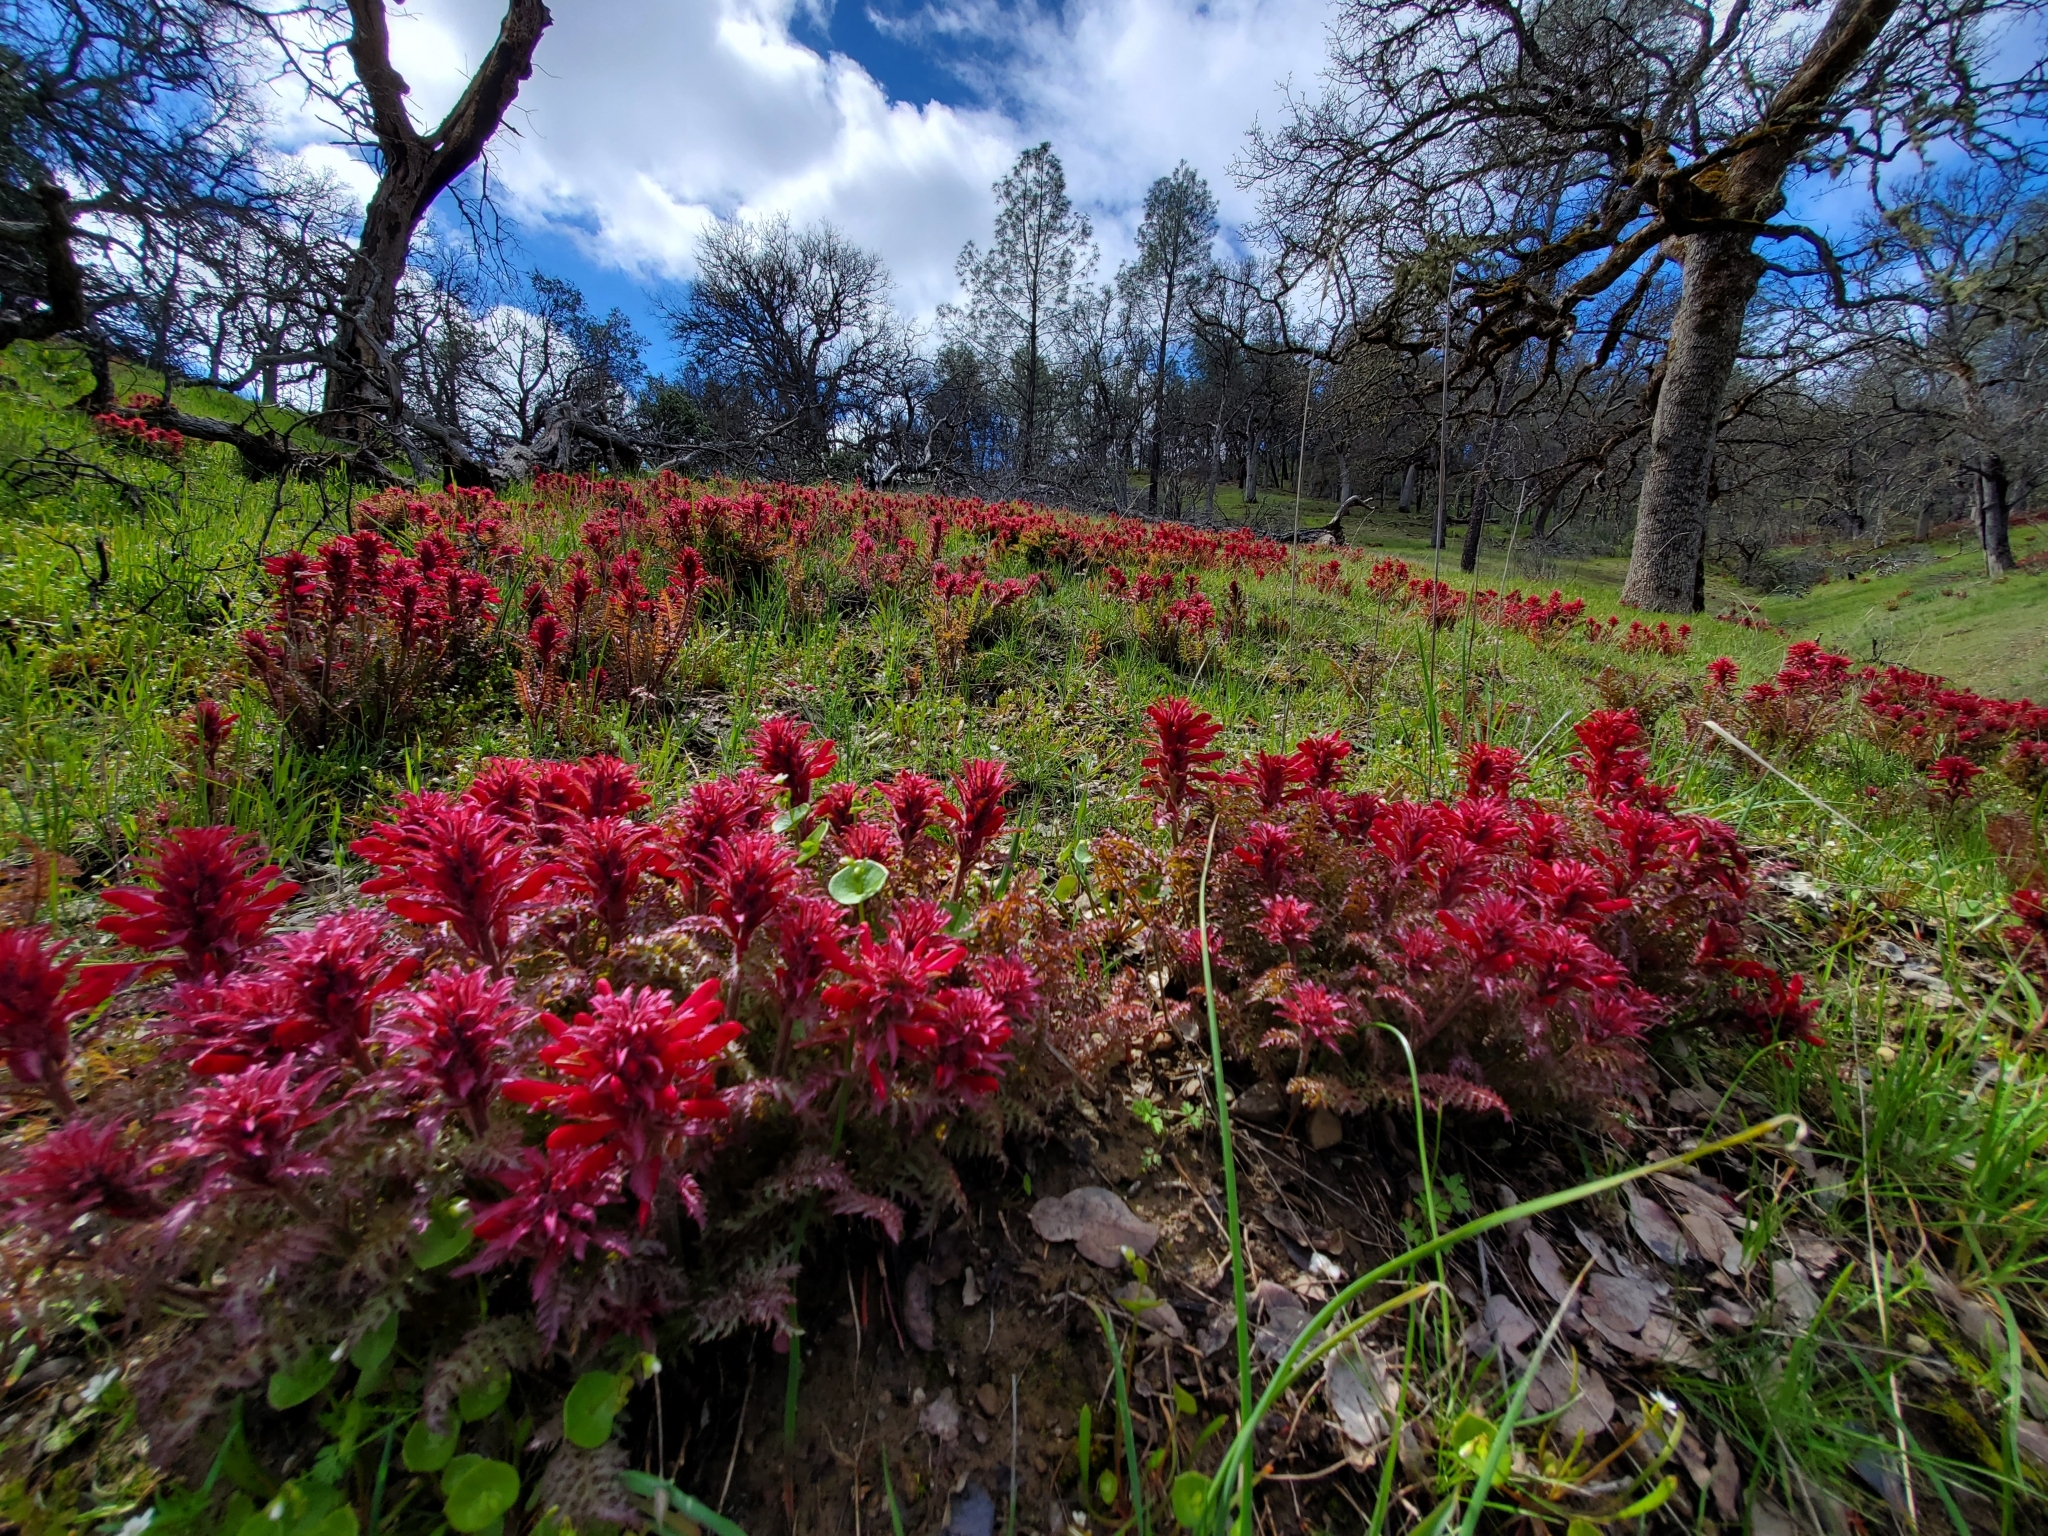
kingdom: Plantae
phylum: Tracheophyta
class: Magnoliopsida
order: Lamiales
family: Orobanchaceae
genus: Pedicularis
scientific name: Pedicularis densiflora
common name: Indian warrior
